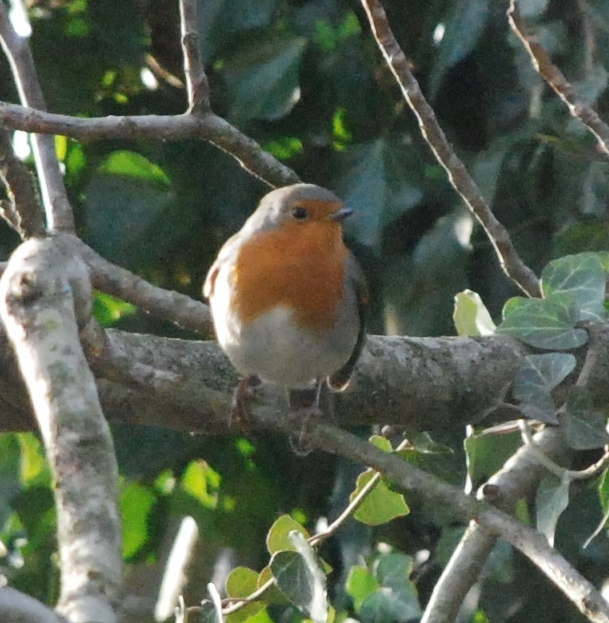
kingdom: Animalia
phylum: Chordata
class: Aves
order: Passeriformes
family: Muscicapidae
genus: Erithacus
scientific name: Erithacus rubecula
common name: European robin
